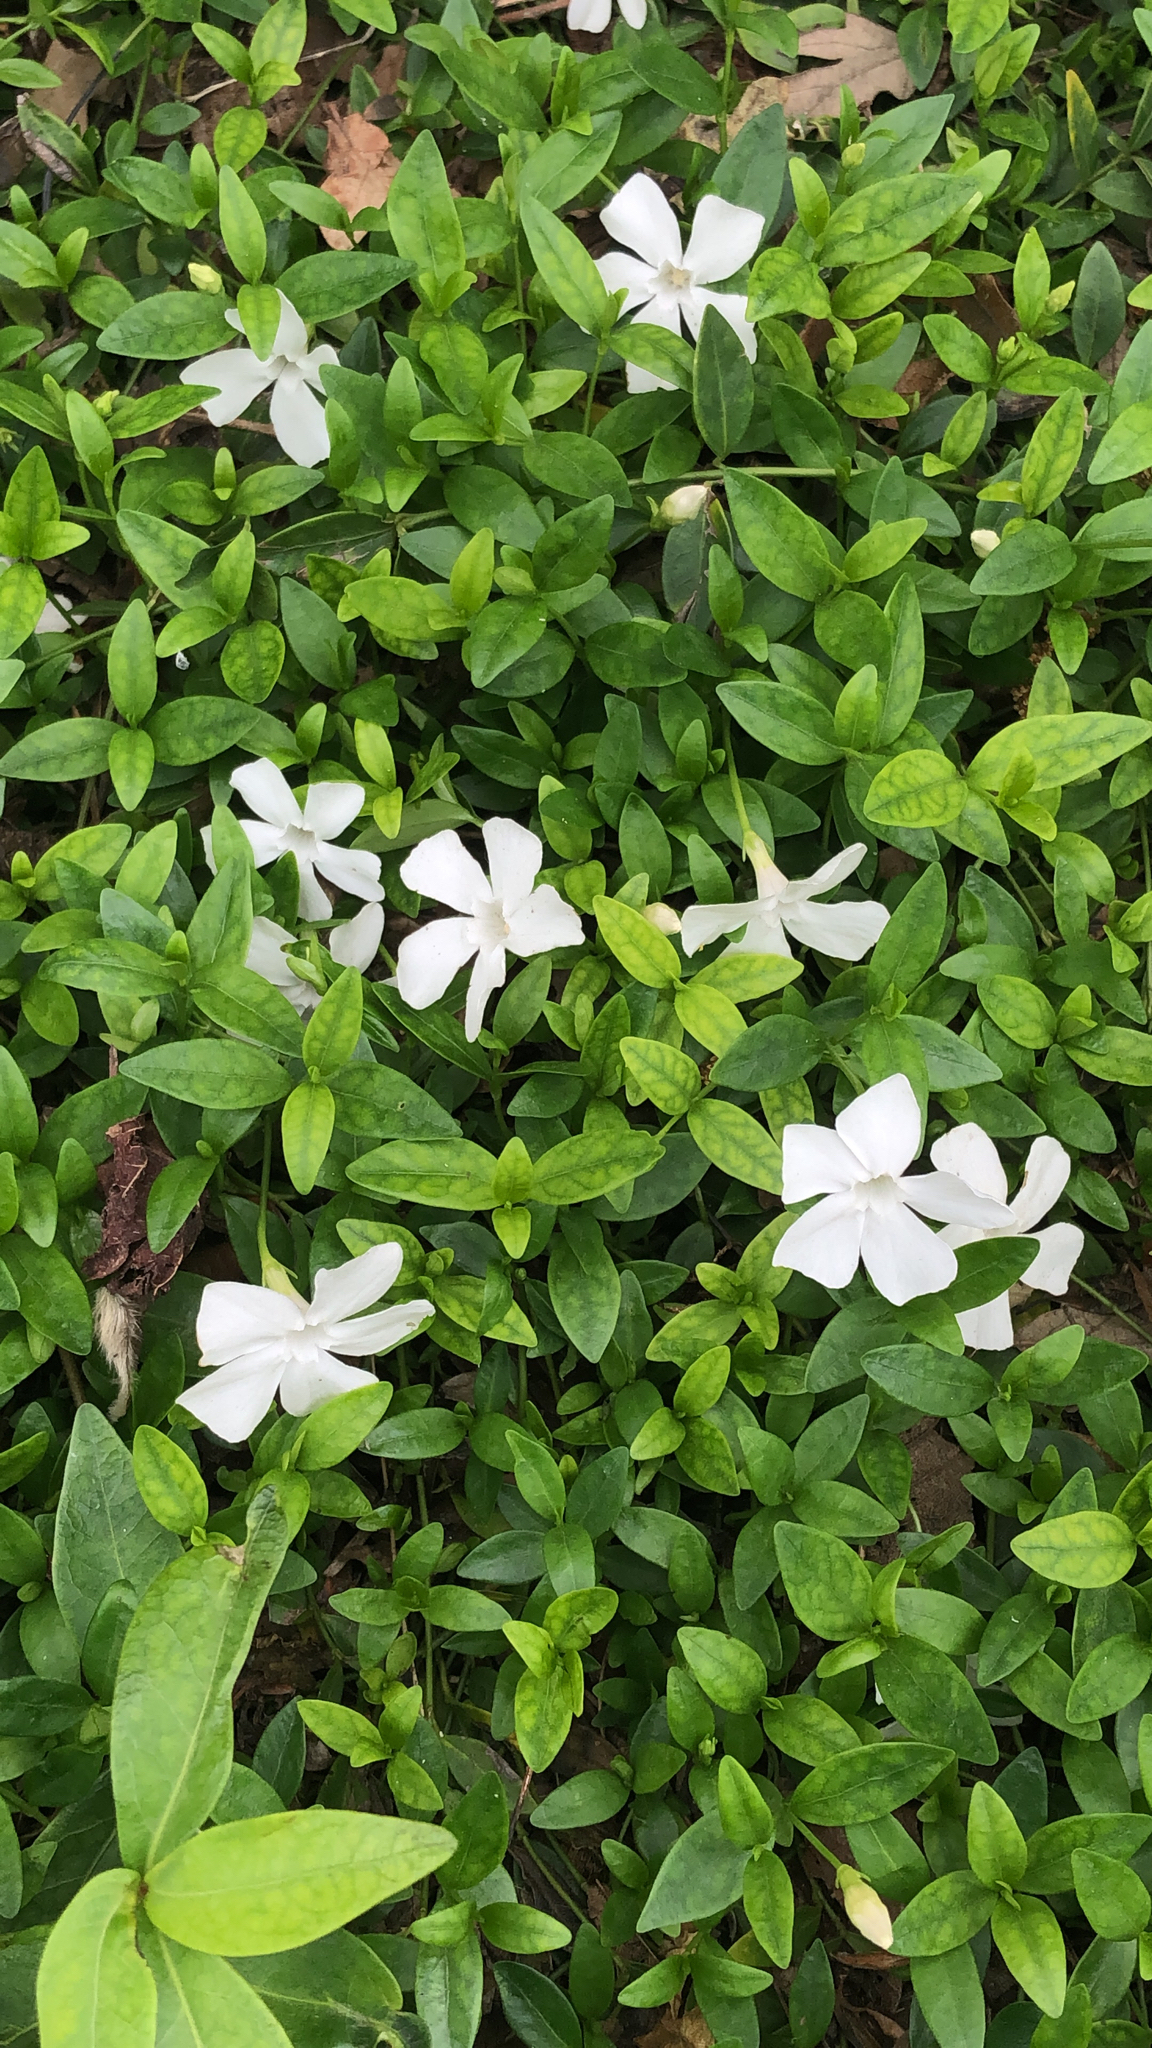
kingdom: Plantae
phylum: Tracheophyta
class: Magnoliopsida
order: Gentianales
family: Apocynaceae
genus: Vinca
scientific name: Vinca minor
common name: Lesser periwinkle
